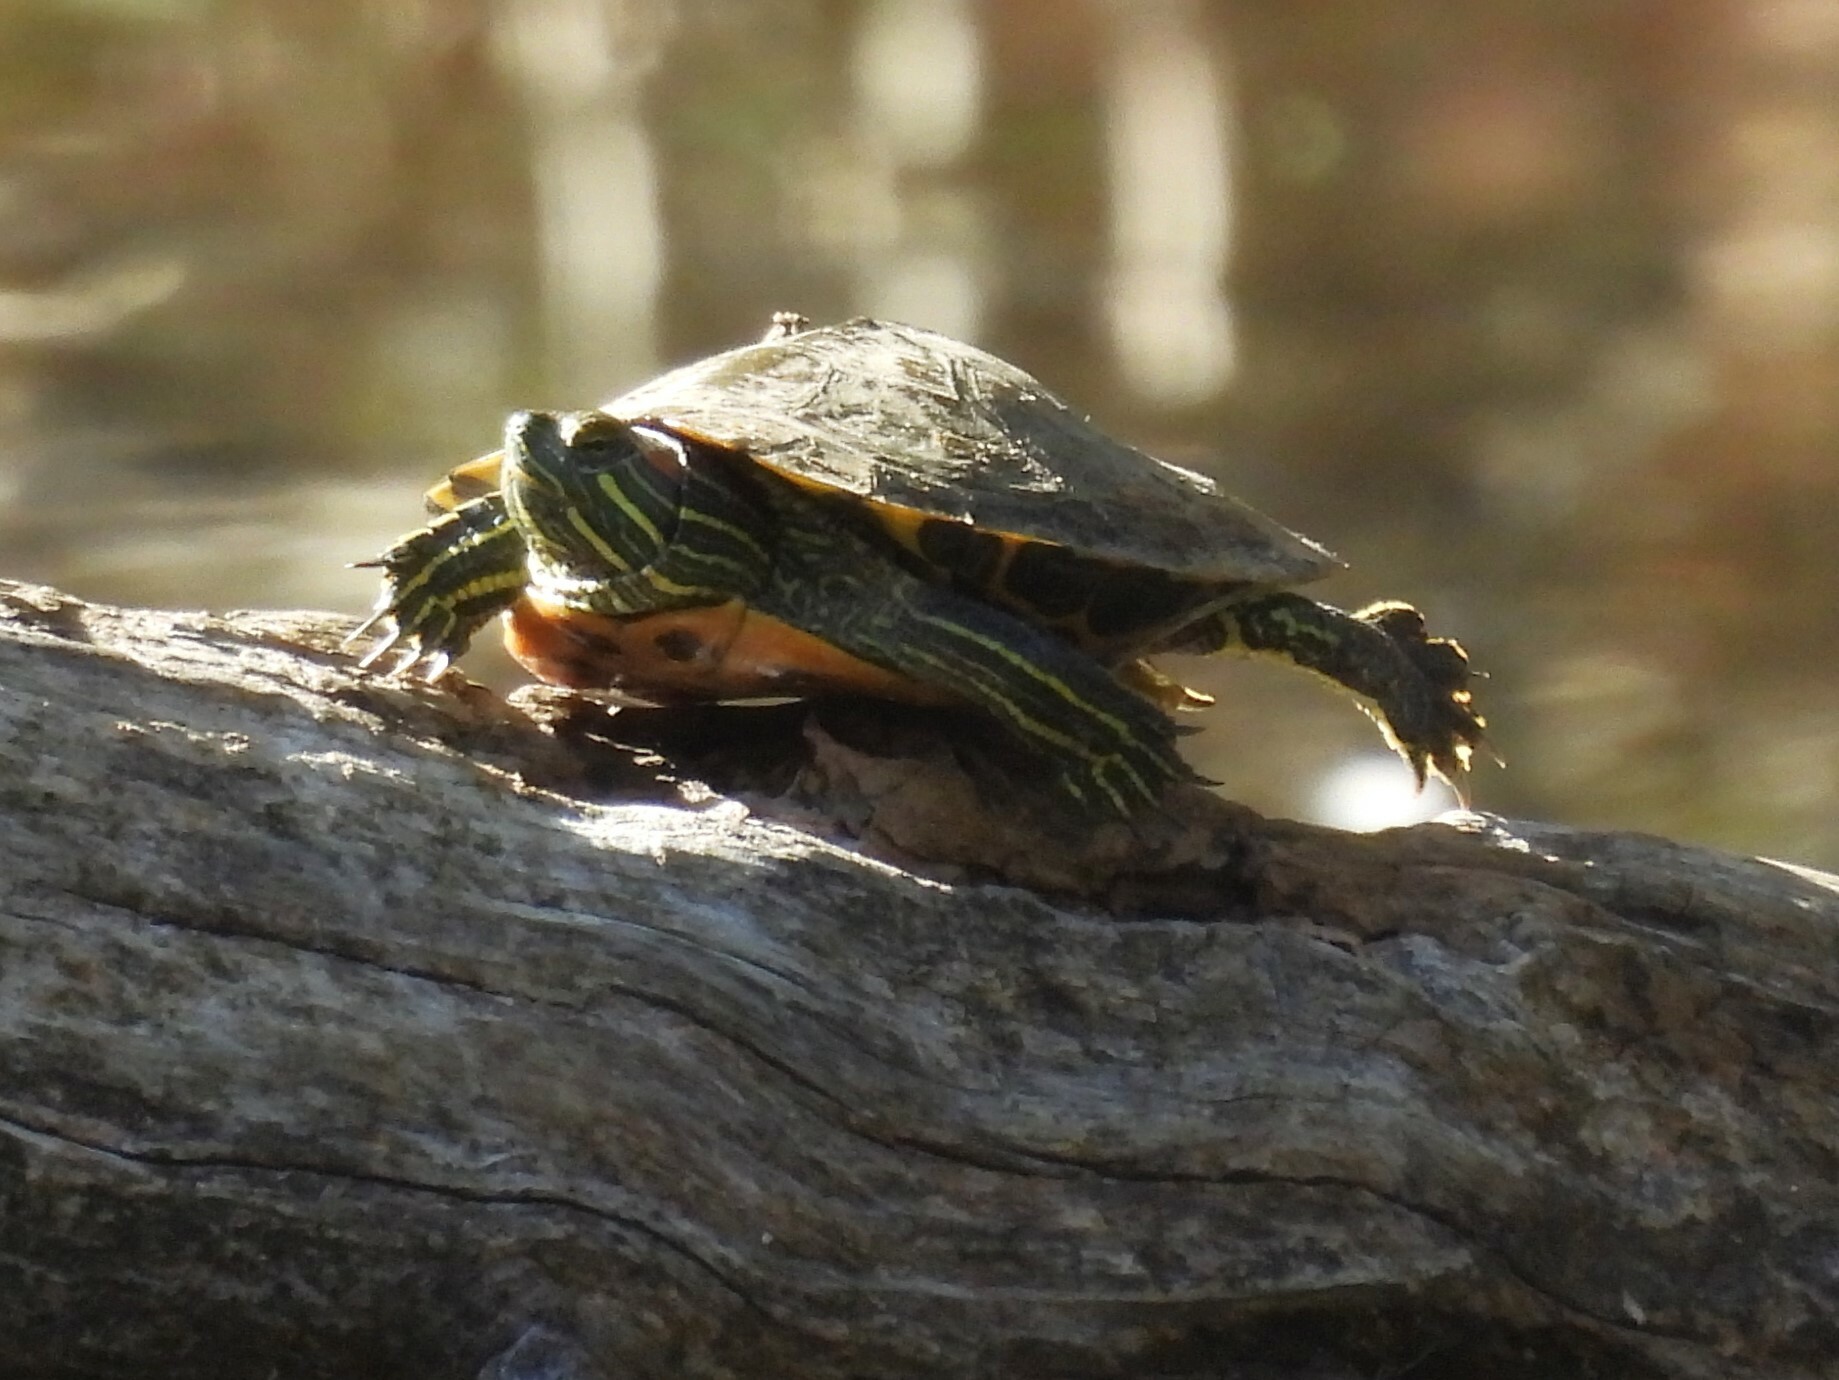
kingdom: Animalia
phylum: Chordata
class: Testudines
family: Emydidae
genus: Trachemys
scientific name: Trachemys scripta
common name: Slider
